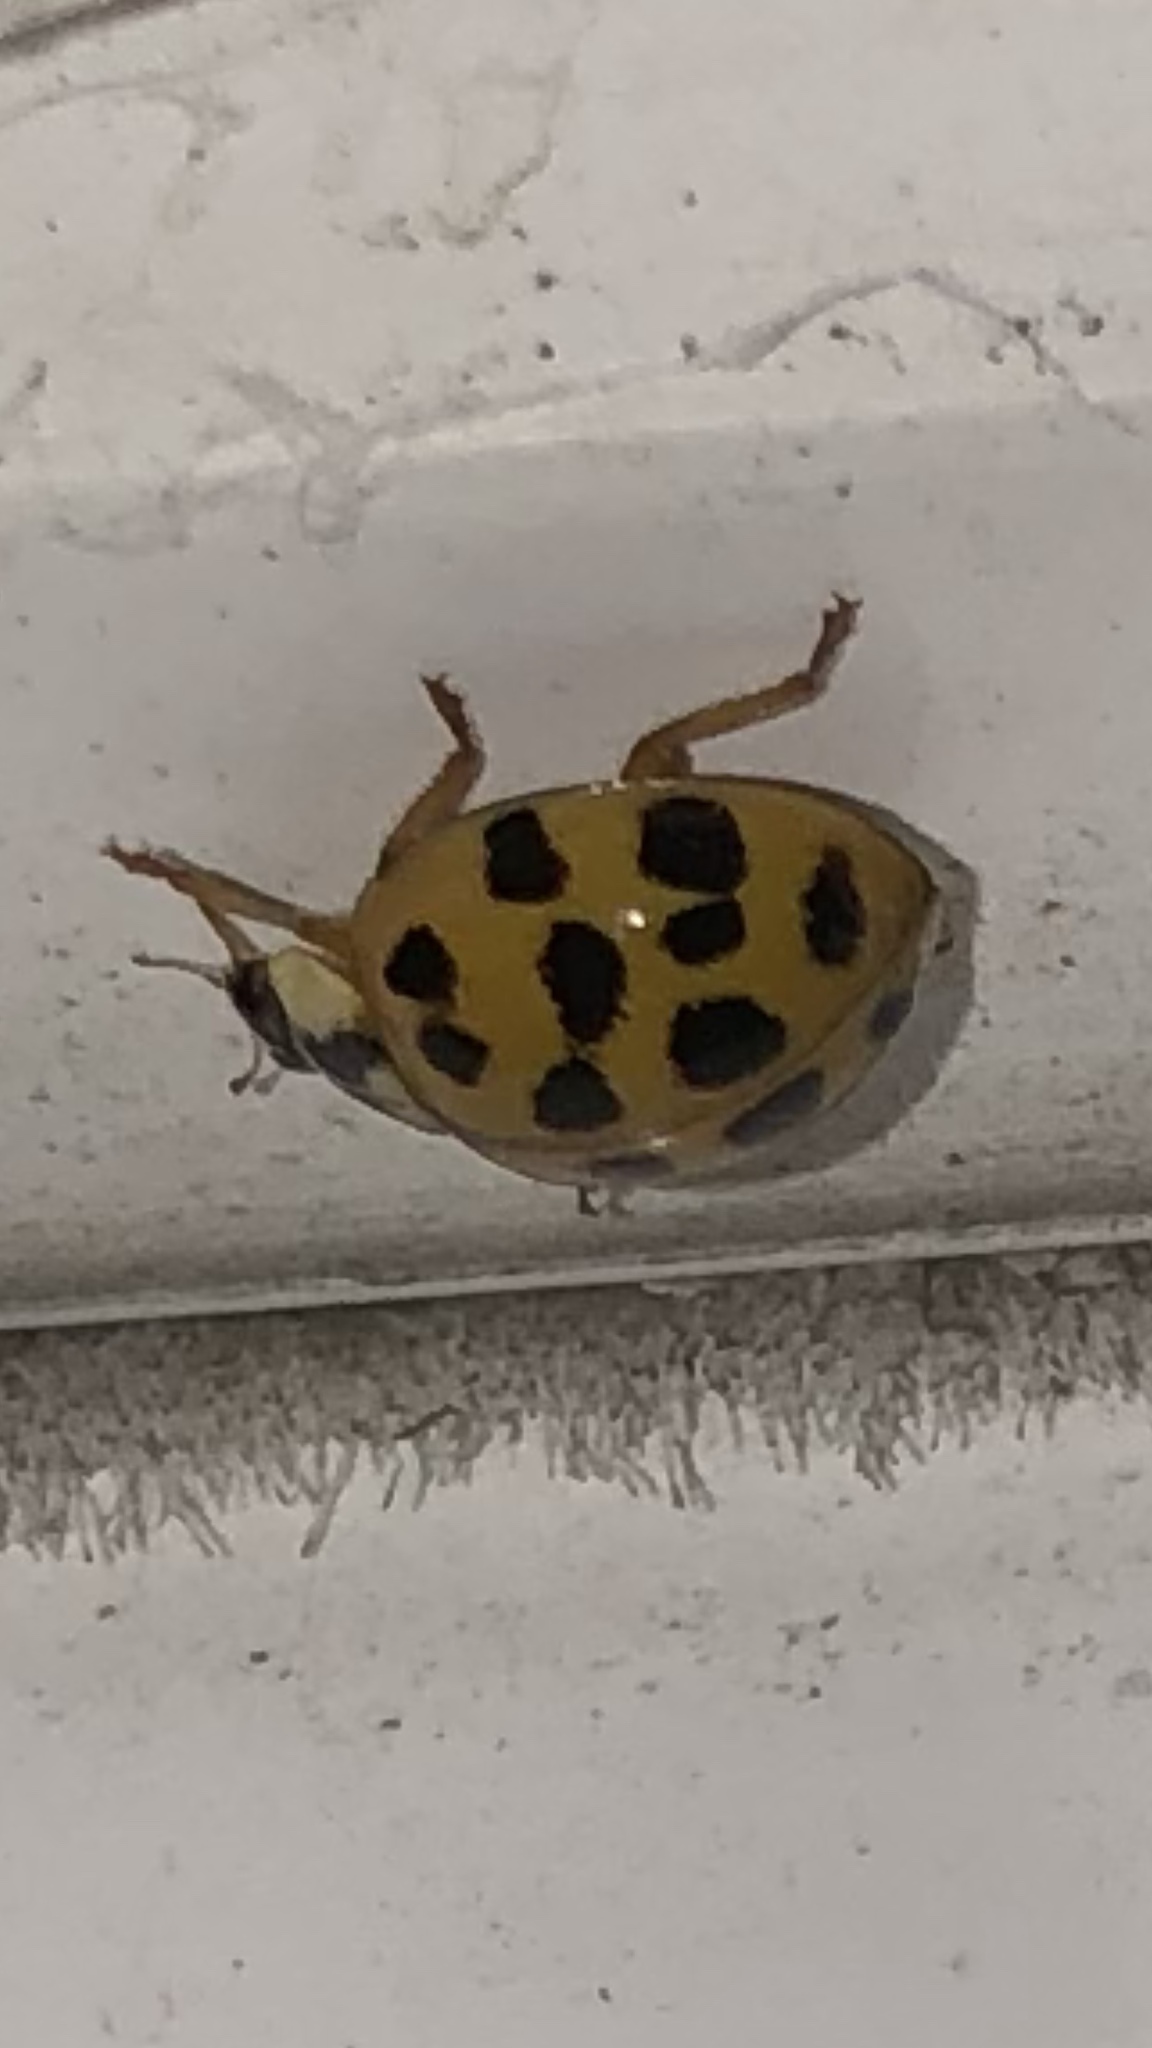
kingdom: Animalia
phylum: Arthropoda
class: Insecta
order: Coleoptera
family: Coccinellidae
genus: Harmonia
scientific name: Harmonia axyridis
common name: Harlequin ladybird
